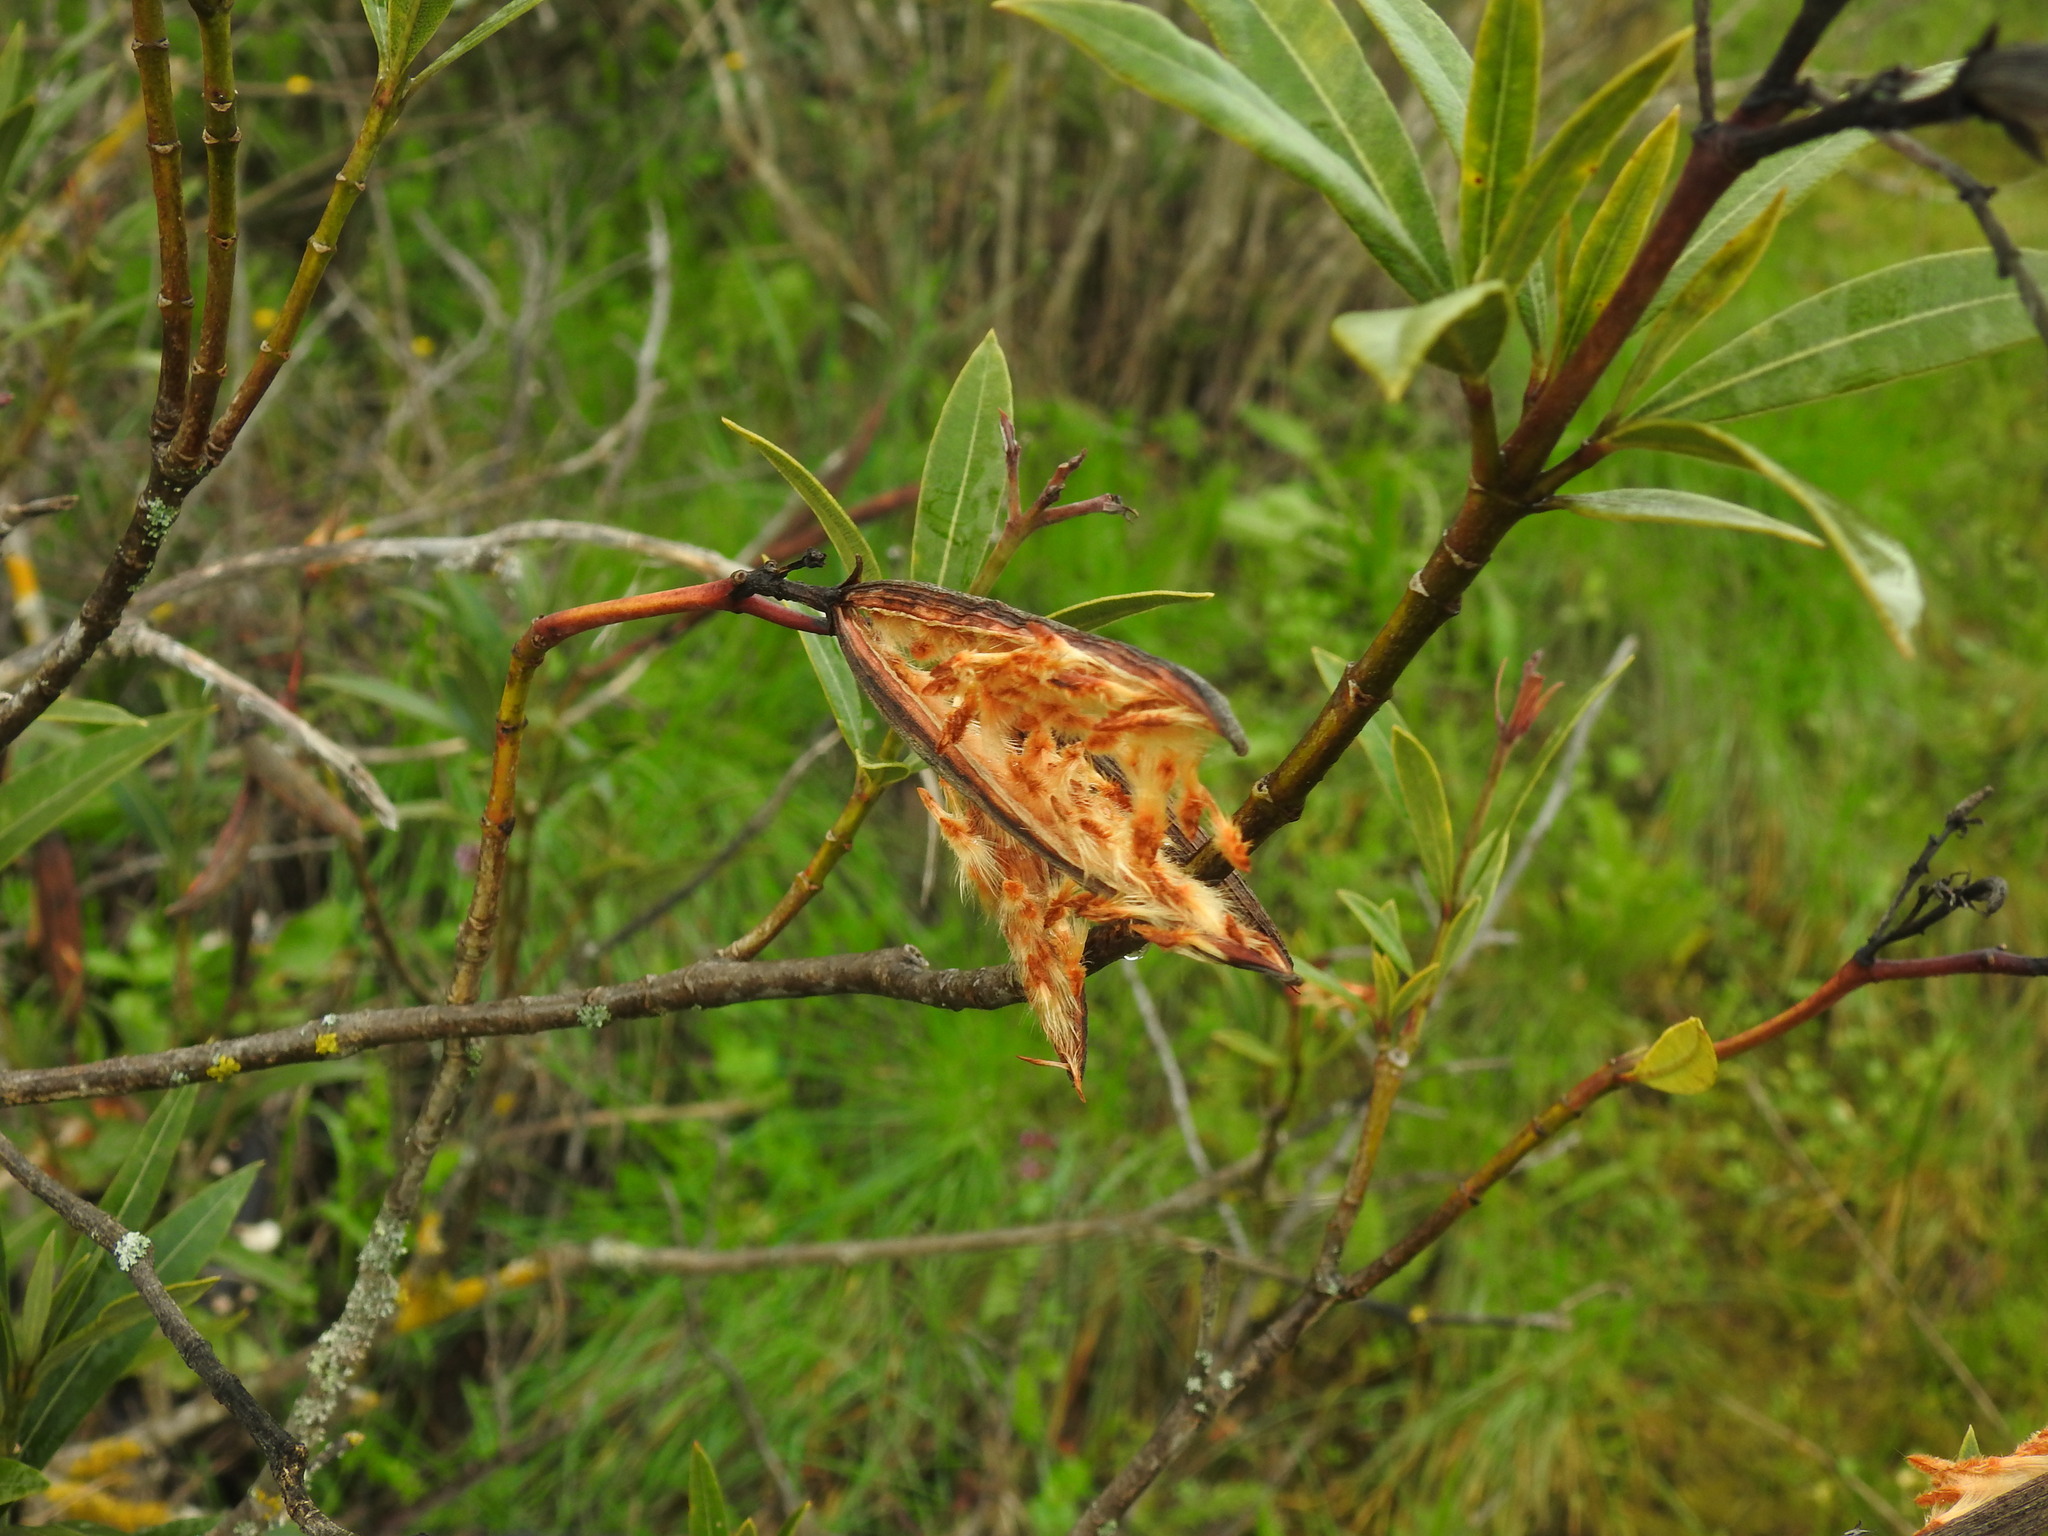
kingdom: Plantae
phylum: Tracheophyta
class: Magnoliopsida
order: Gentianales
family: Apocynaceae
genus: Nerium
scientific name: Nerium oleander
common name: Oleander
